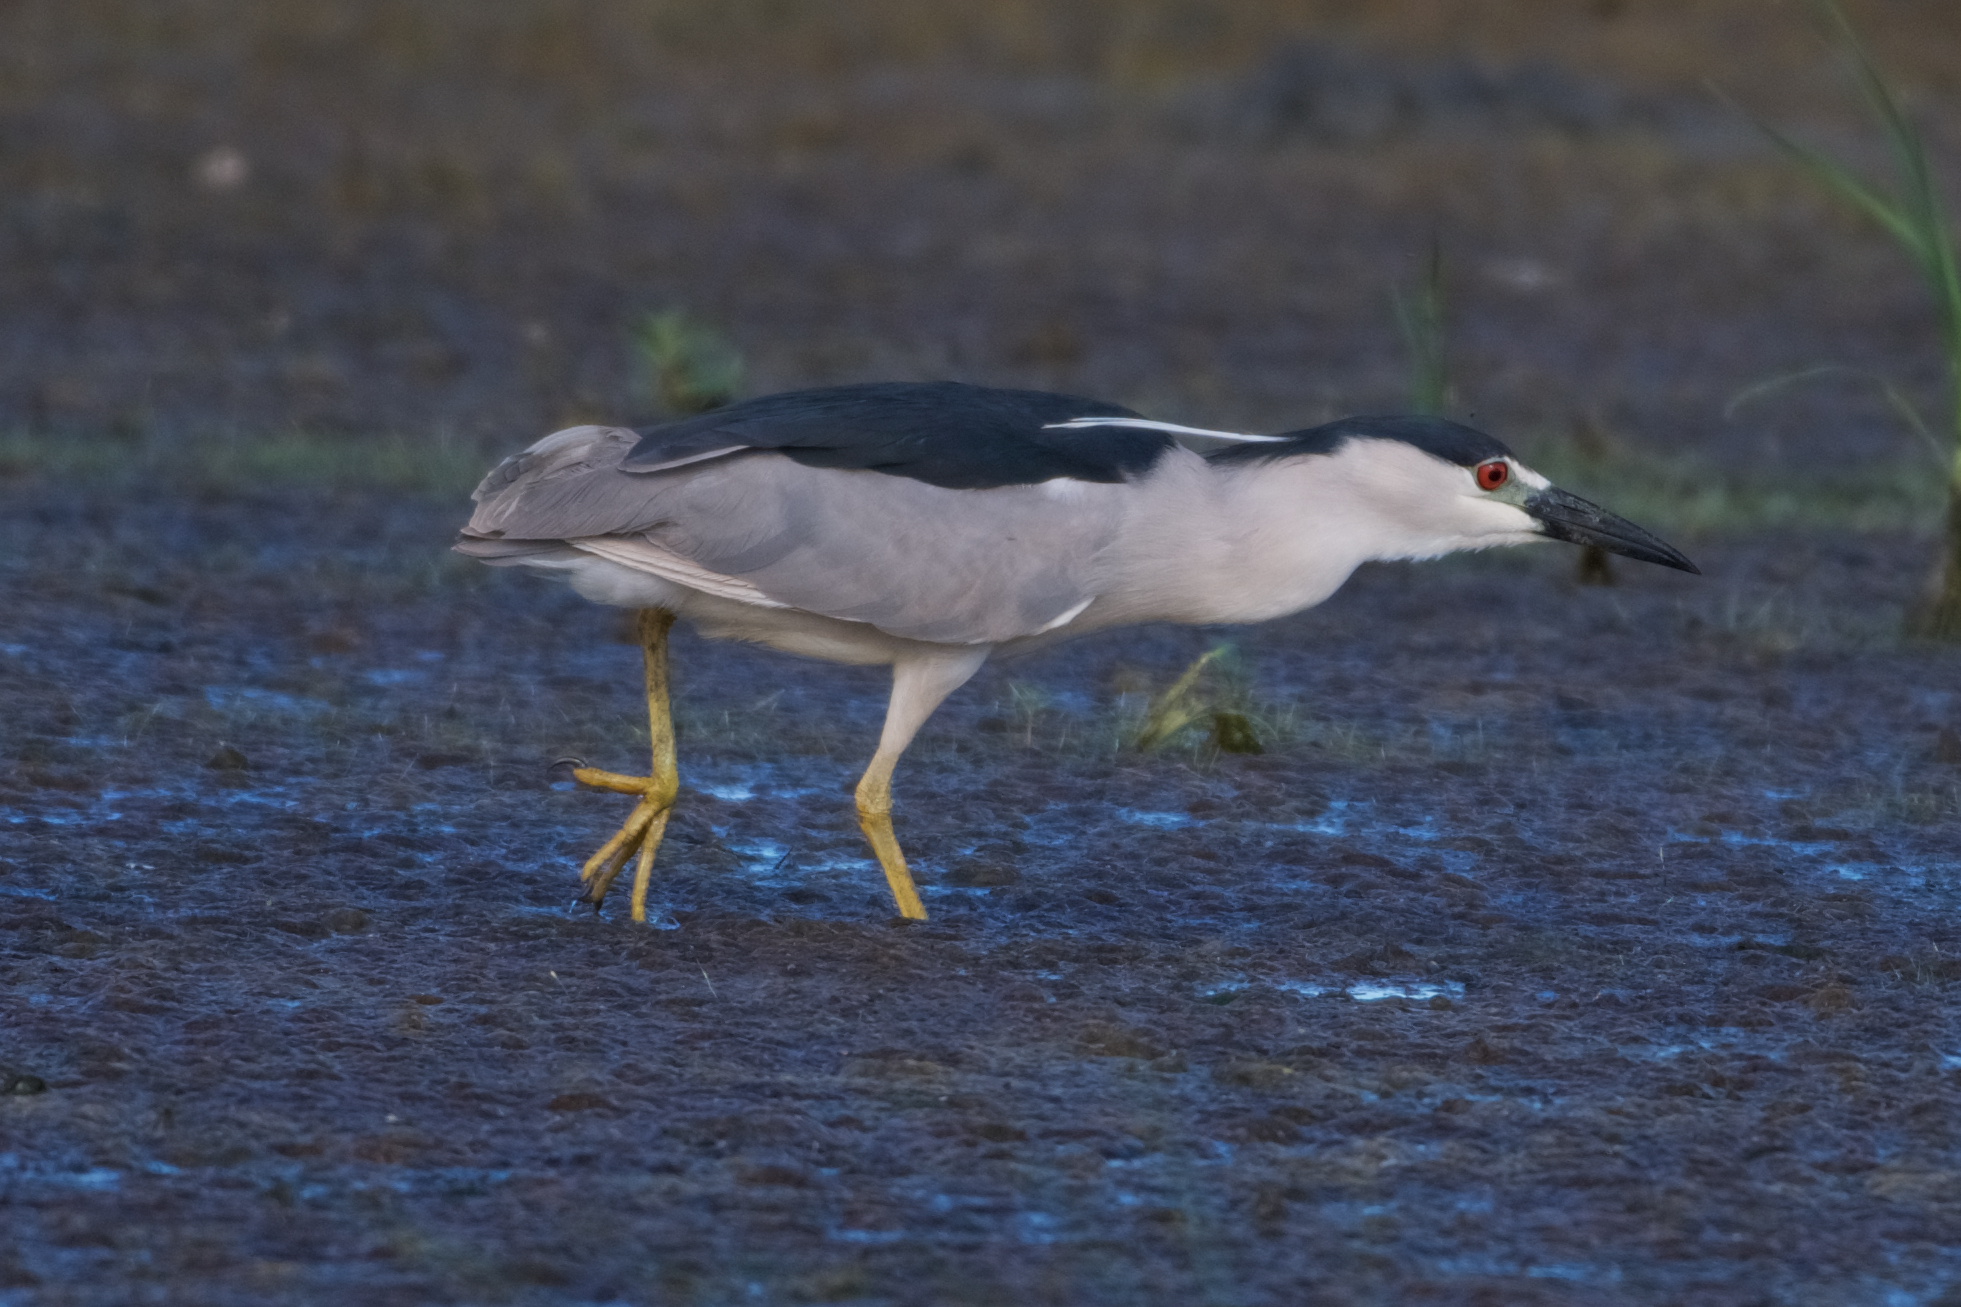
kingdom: Animalia
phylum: Chordata
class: Aves
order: Pelecaniformes
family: Ardeidae
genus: Nycticorax
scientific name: Nycticorax nycticorax
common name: Black-crowned night heron
